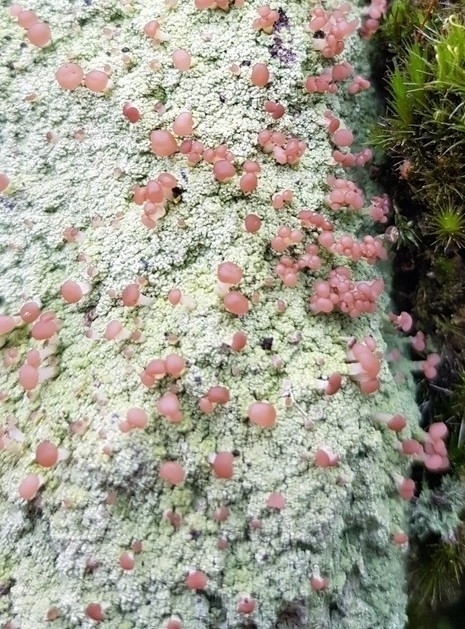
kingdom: Fungi
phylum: Ascomycota
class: Lecanoromycetes
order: Baeomycetales
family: Baeomycetaceae
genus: Baeomyces
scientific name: Baeomyces rufus
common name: Brown beret lichen
